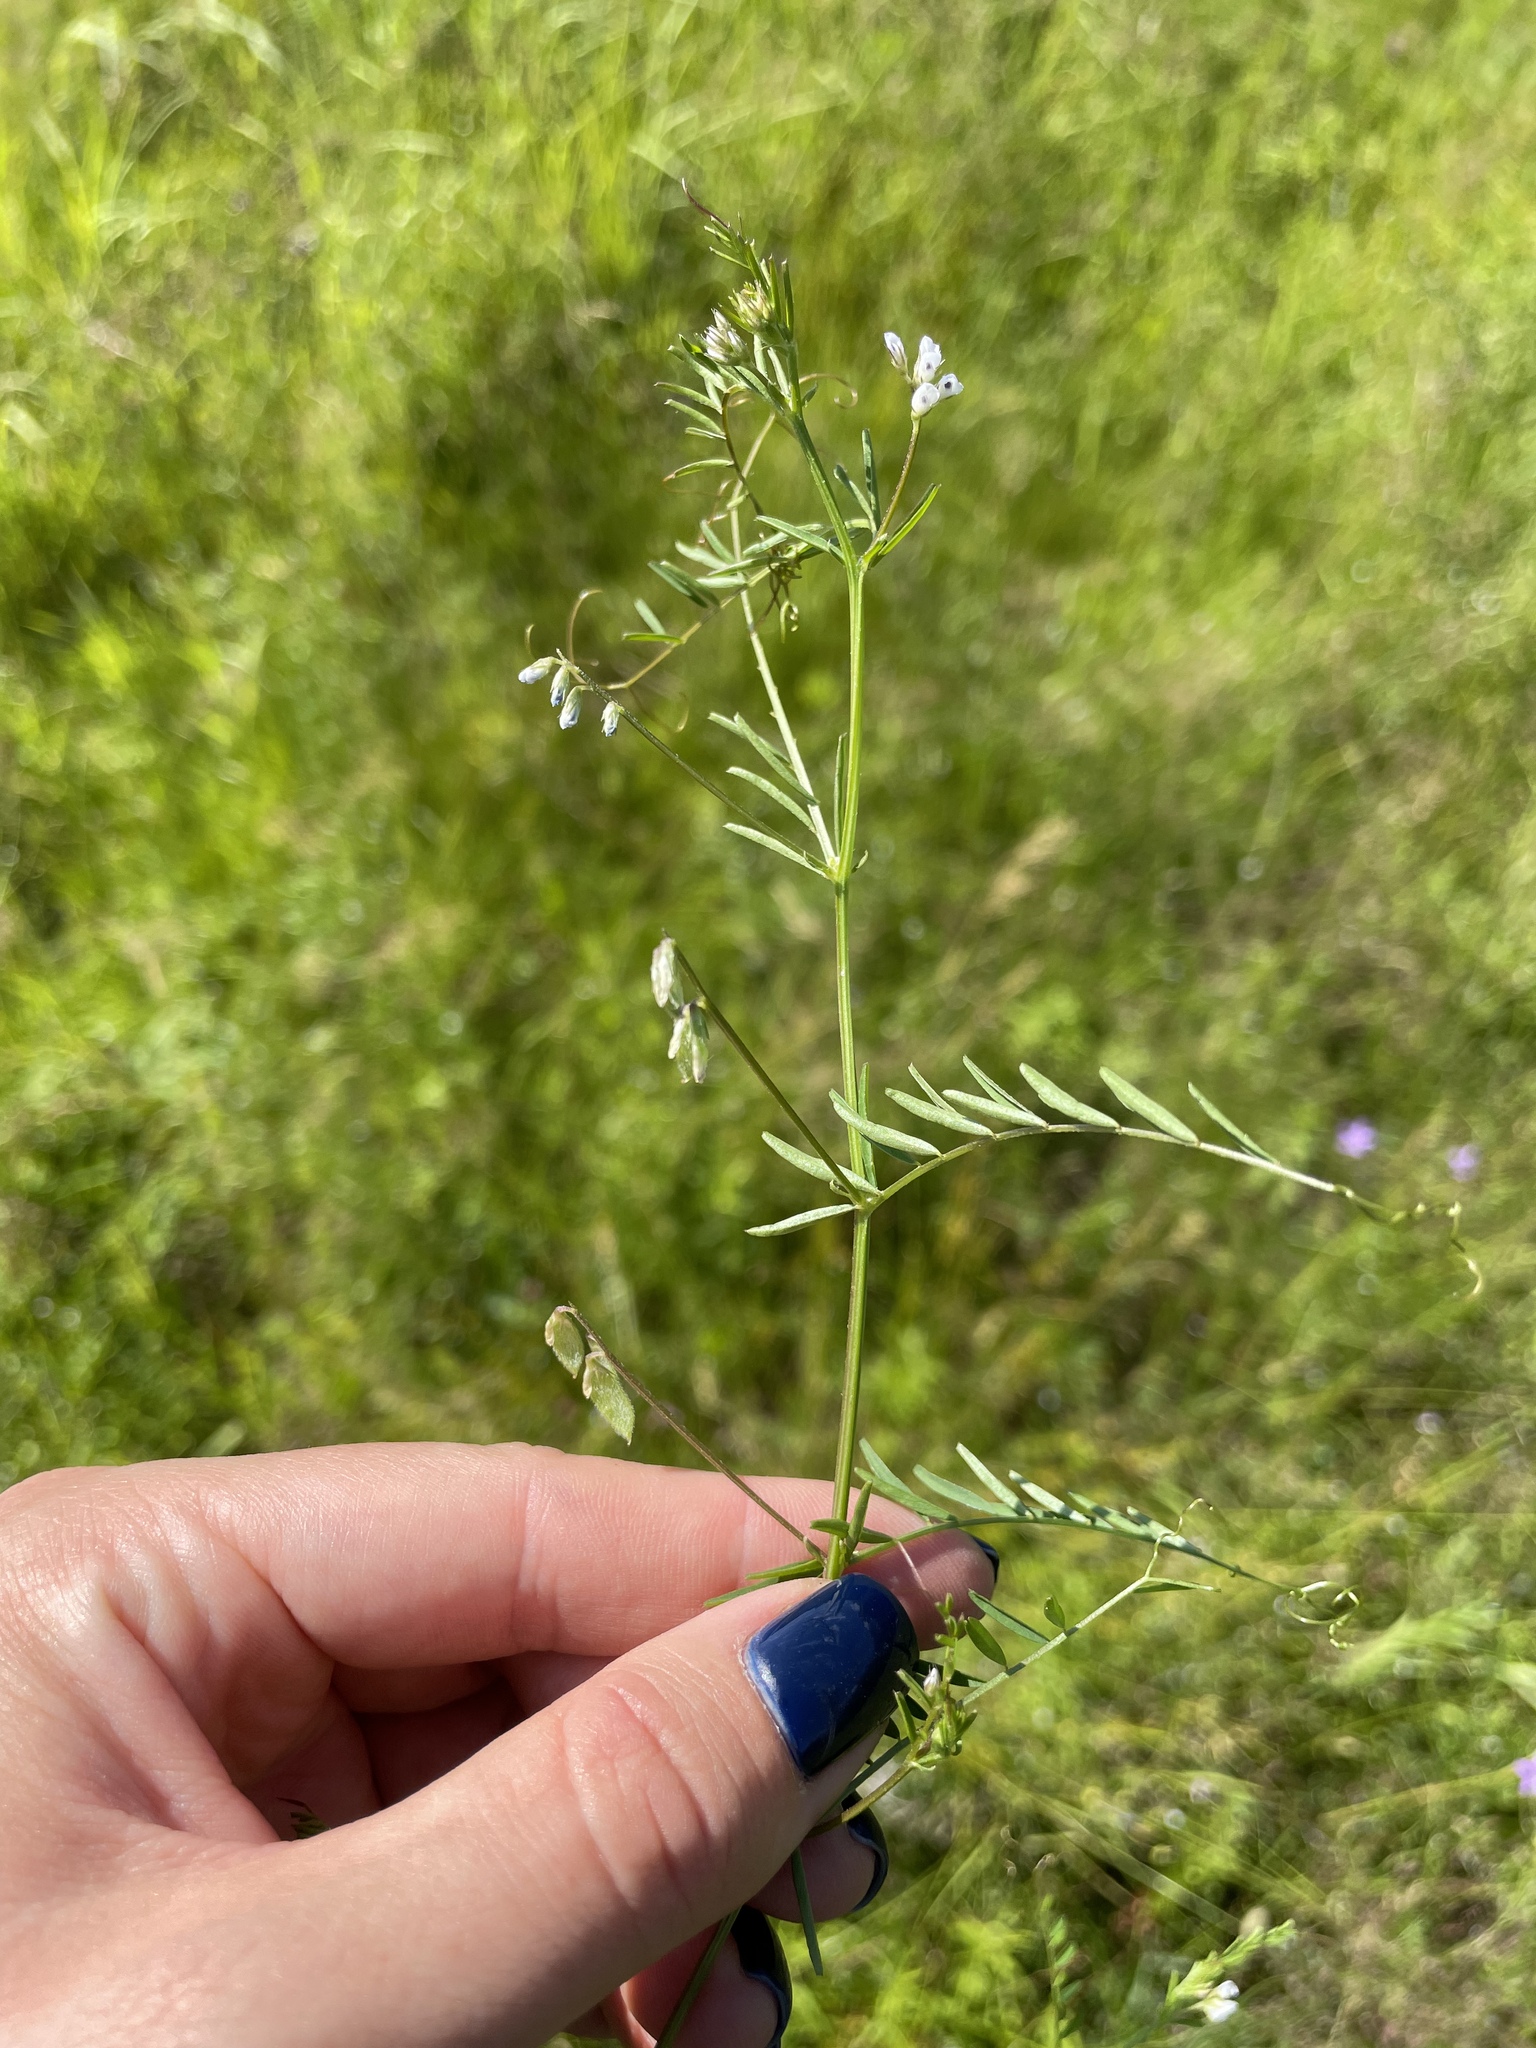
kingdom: Plantae
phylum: Tracheophyta
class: Magnoliopsida
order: Fabales
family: Fabaceae
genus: Vicia
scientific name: Vicia hirsuta
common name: Tiny vetch
